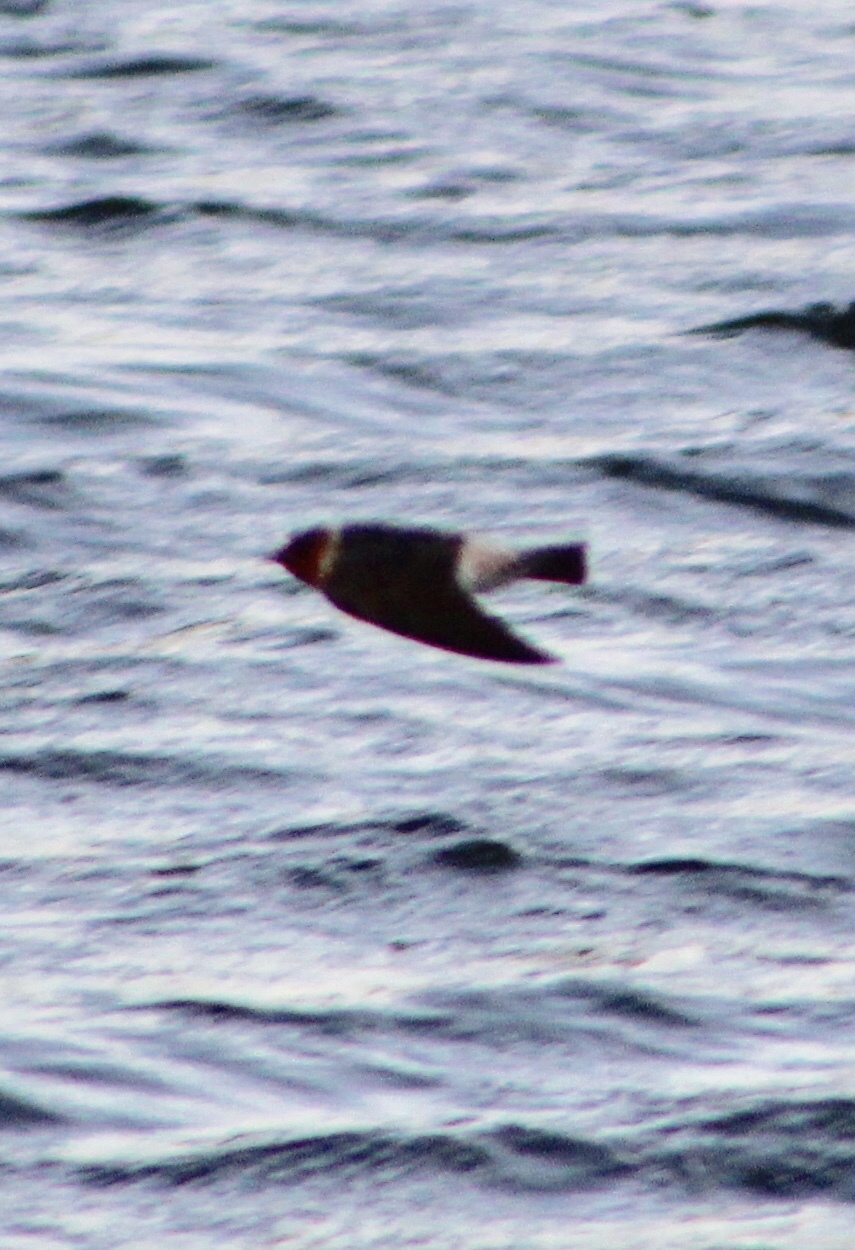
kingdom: Animalia
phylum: Chordata
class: Aves
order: Passeriformes
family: Hirundinidae
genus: Petrochelidon
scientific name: Petrochelidon pyrrhonota
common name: American cliff swallow
